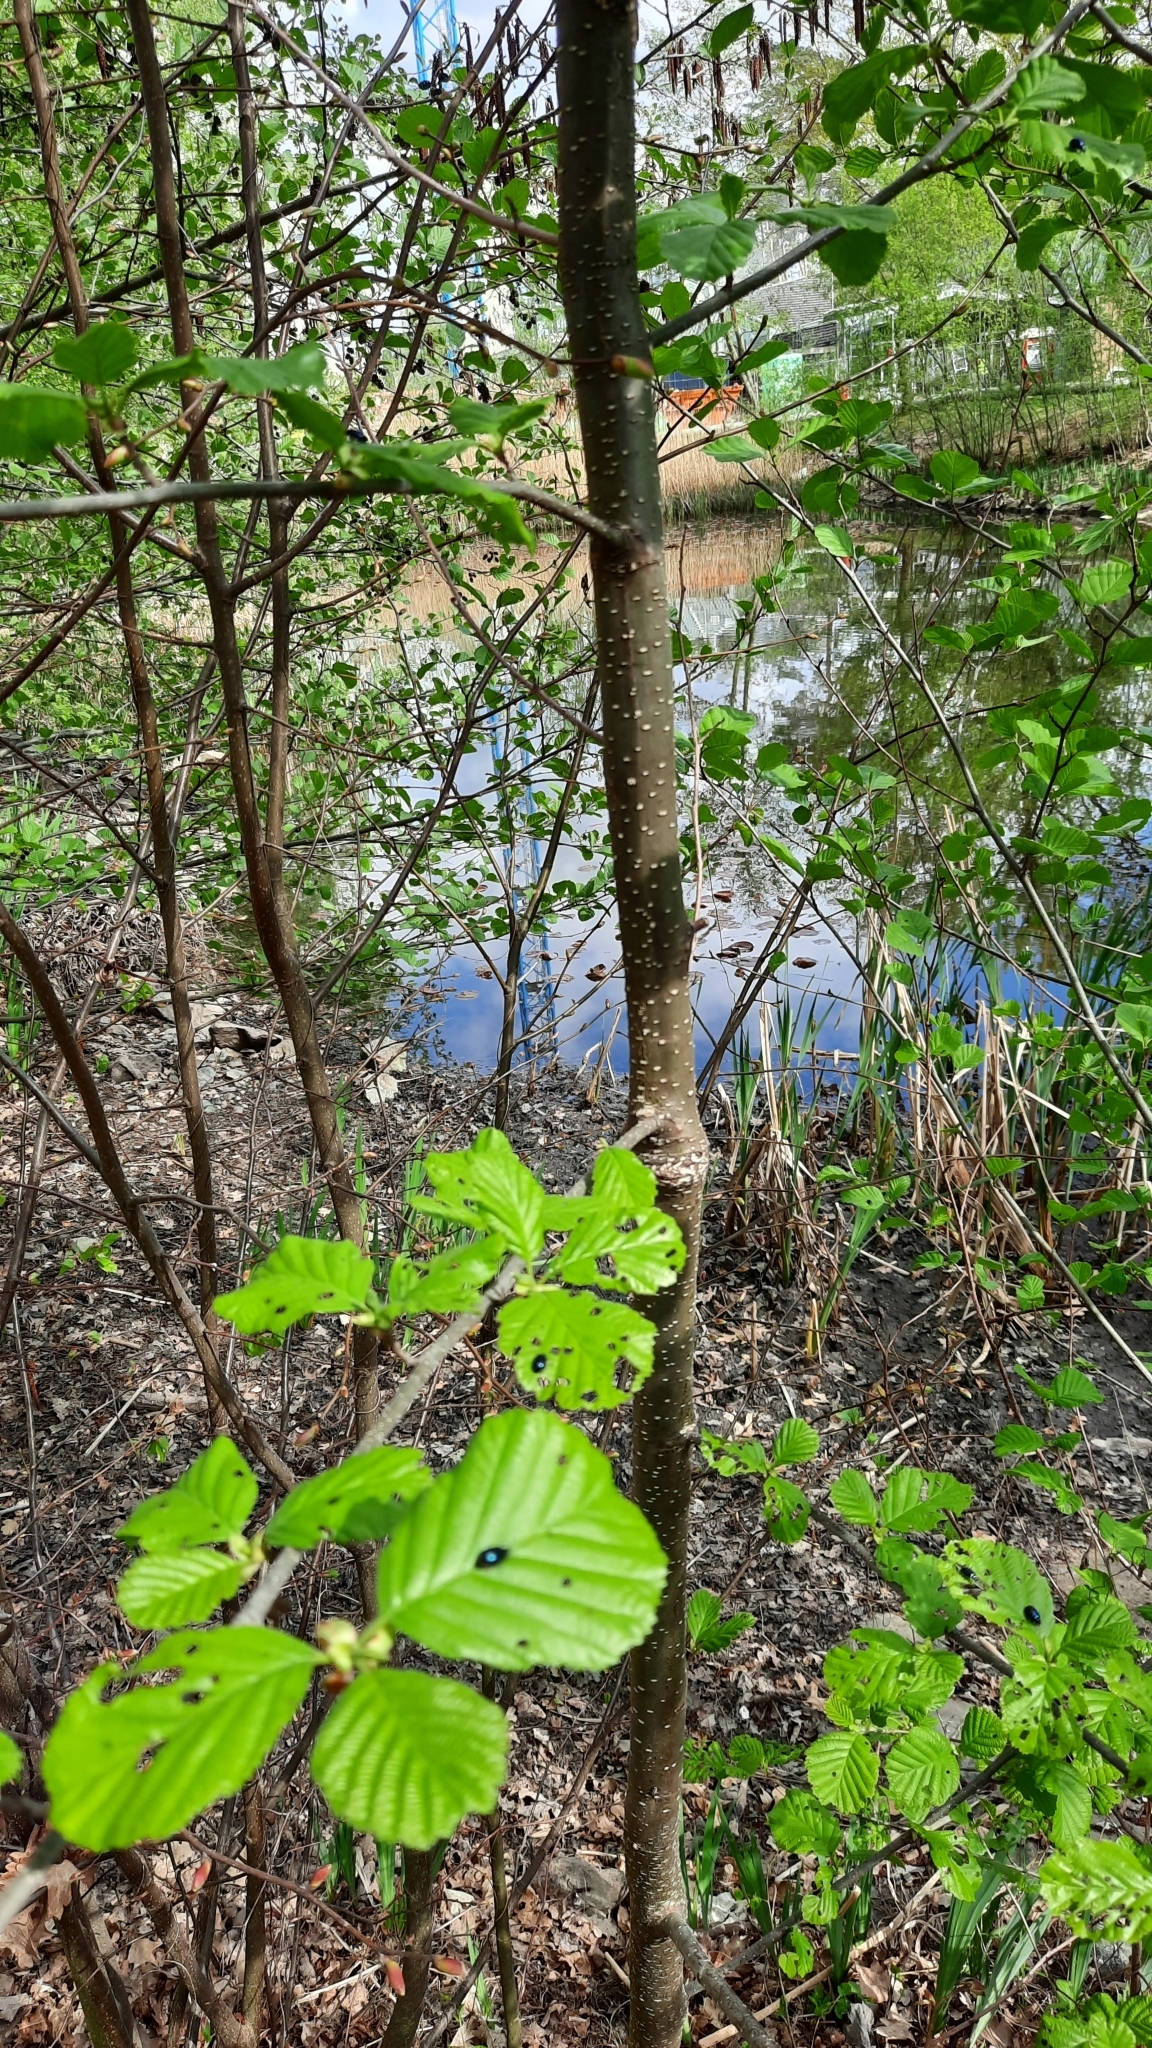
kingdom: Plantae
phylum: Tracheophyta
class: Magnoliopsida
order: Fagales
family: Betulaceae
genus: Alnus
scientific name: Alnus glutinosa
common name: Black alder
